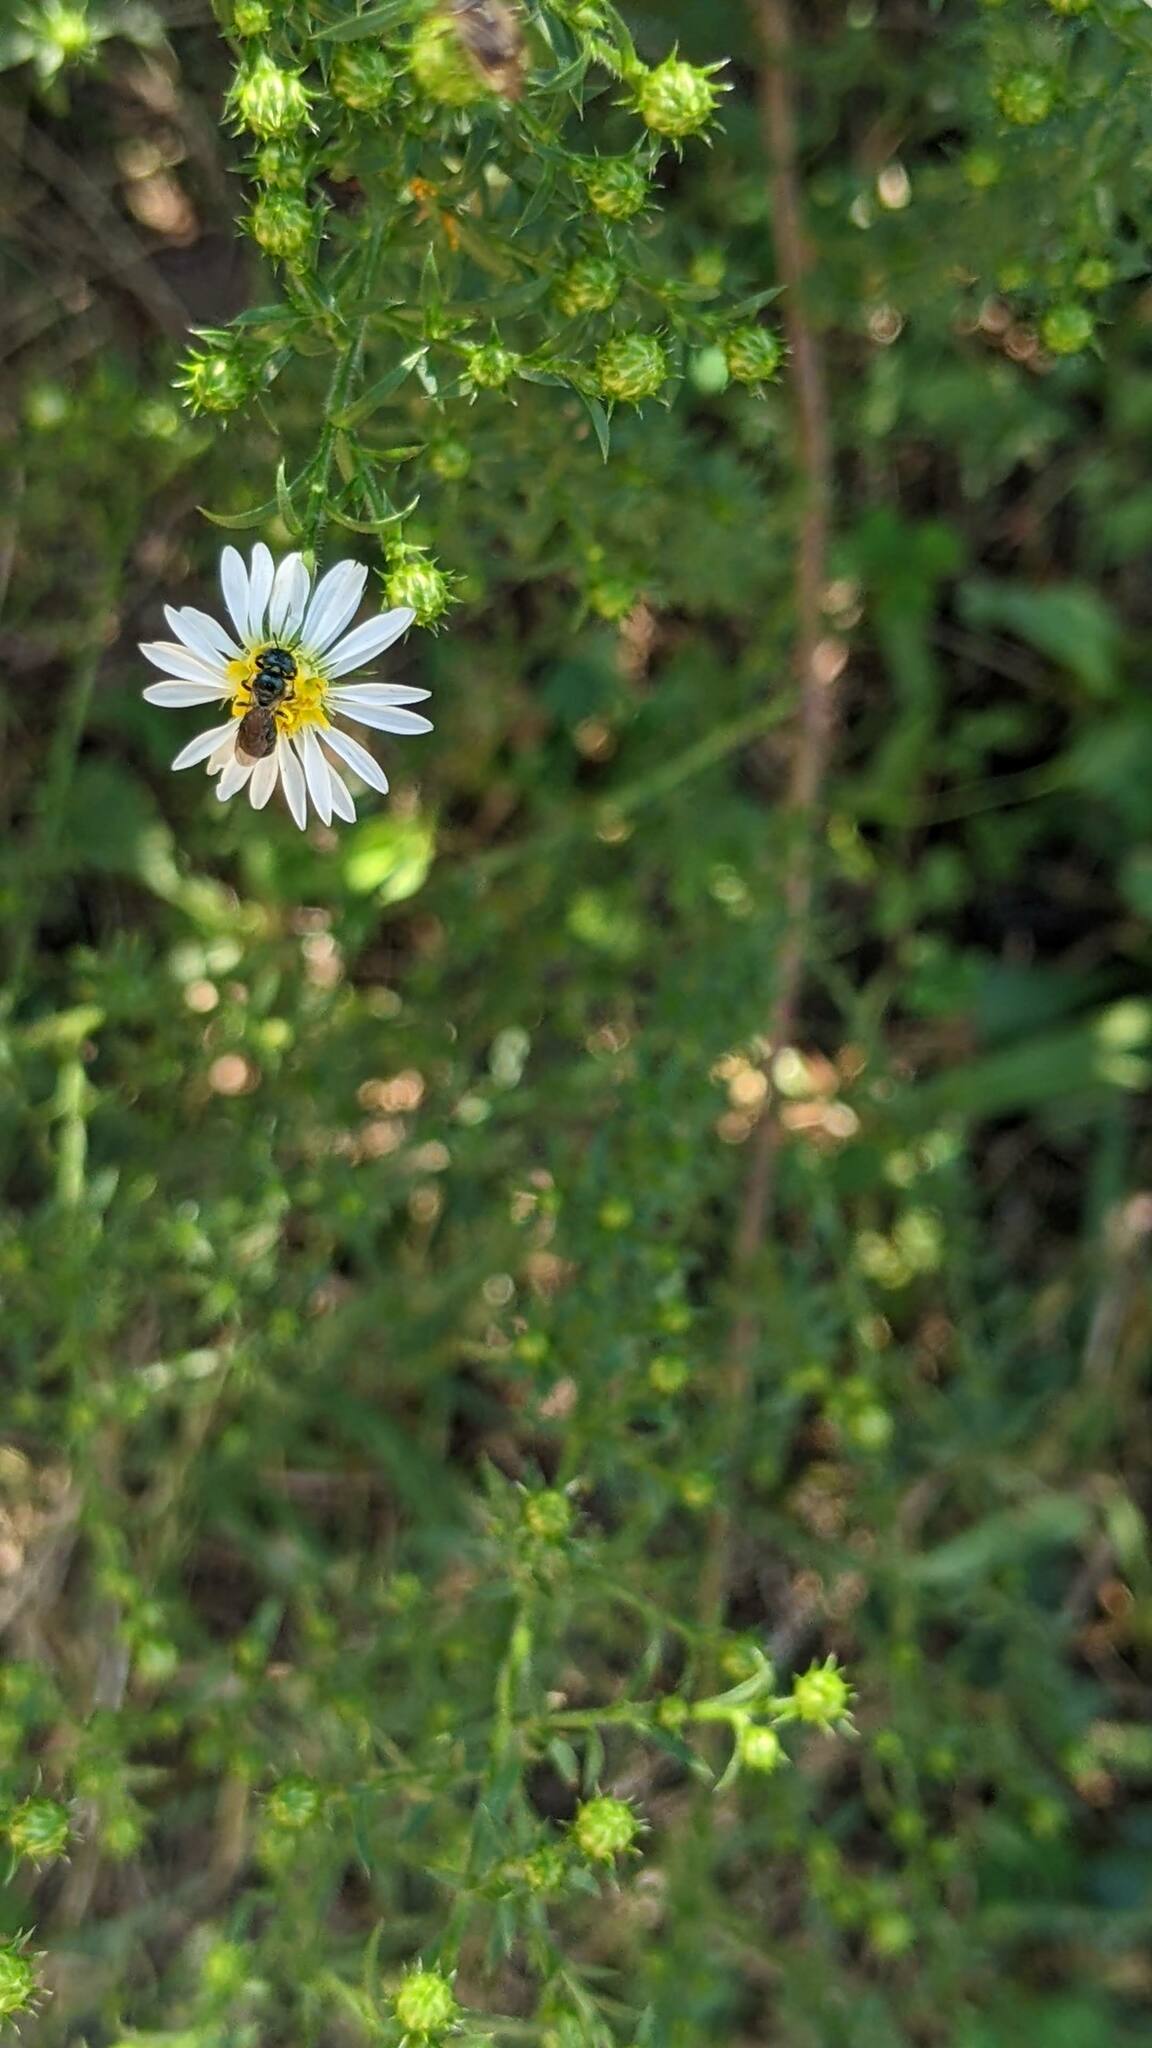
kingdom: Animalia
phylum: Arthropoda
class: Insecta
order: Hymenoptera
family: Apidae
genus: Zadontomerus
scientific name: Zadontomerus
